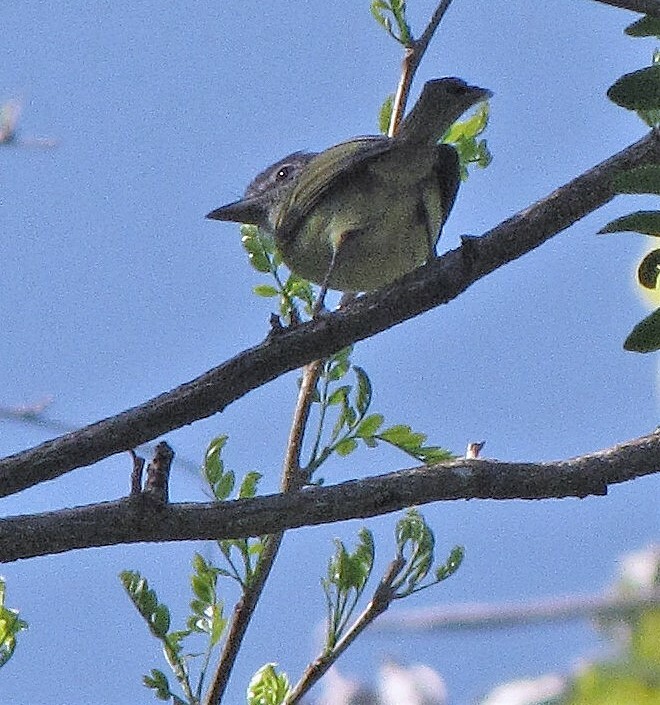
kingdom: Animalia
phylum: Chordata
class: Aves
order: Passeriformes
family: Tyrannidae
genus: Tolmomyias
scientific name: Tolmomyias sulphurescens
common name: Yellow-olive flycatcher
